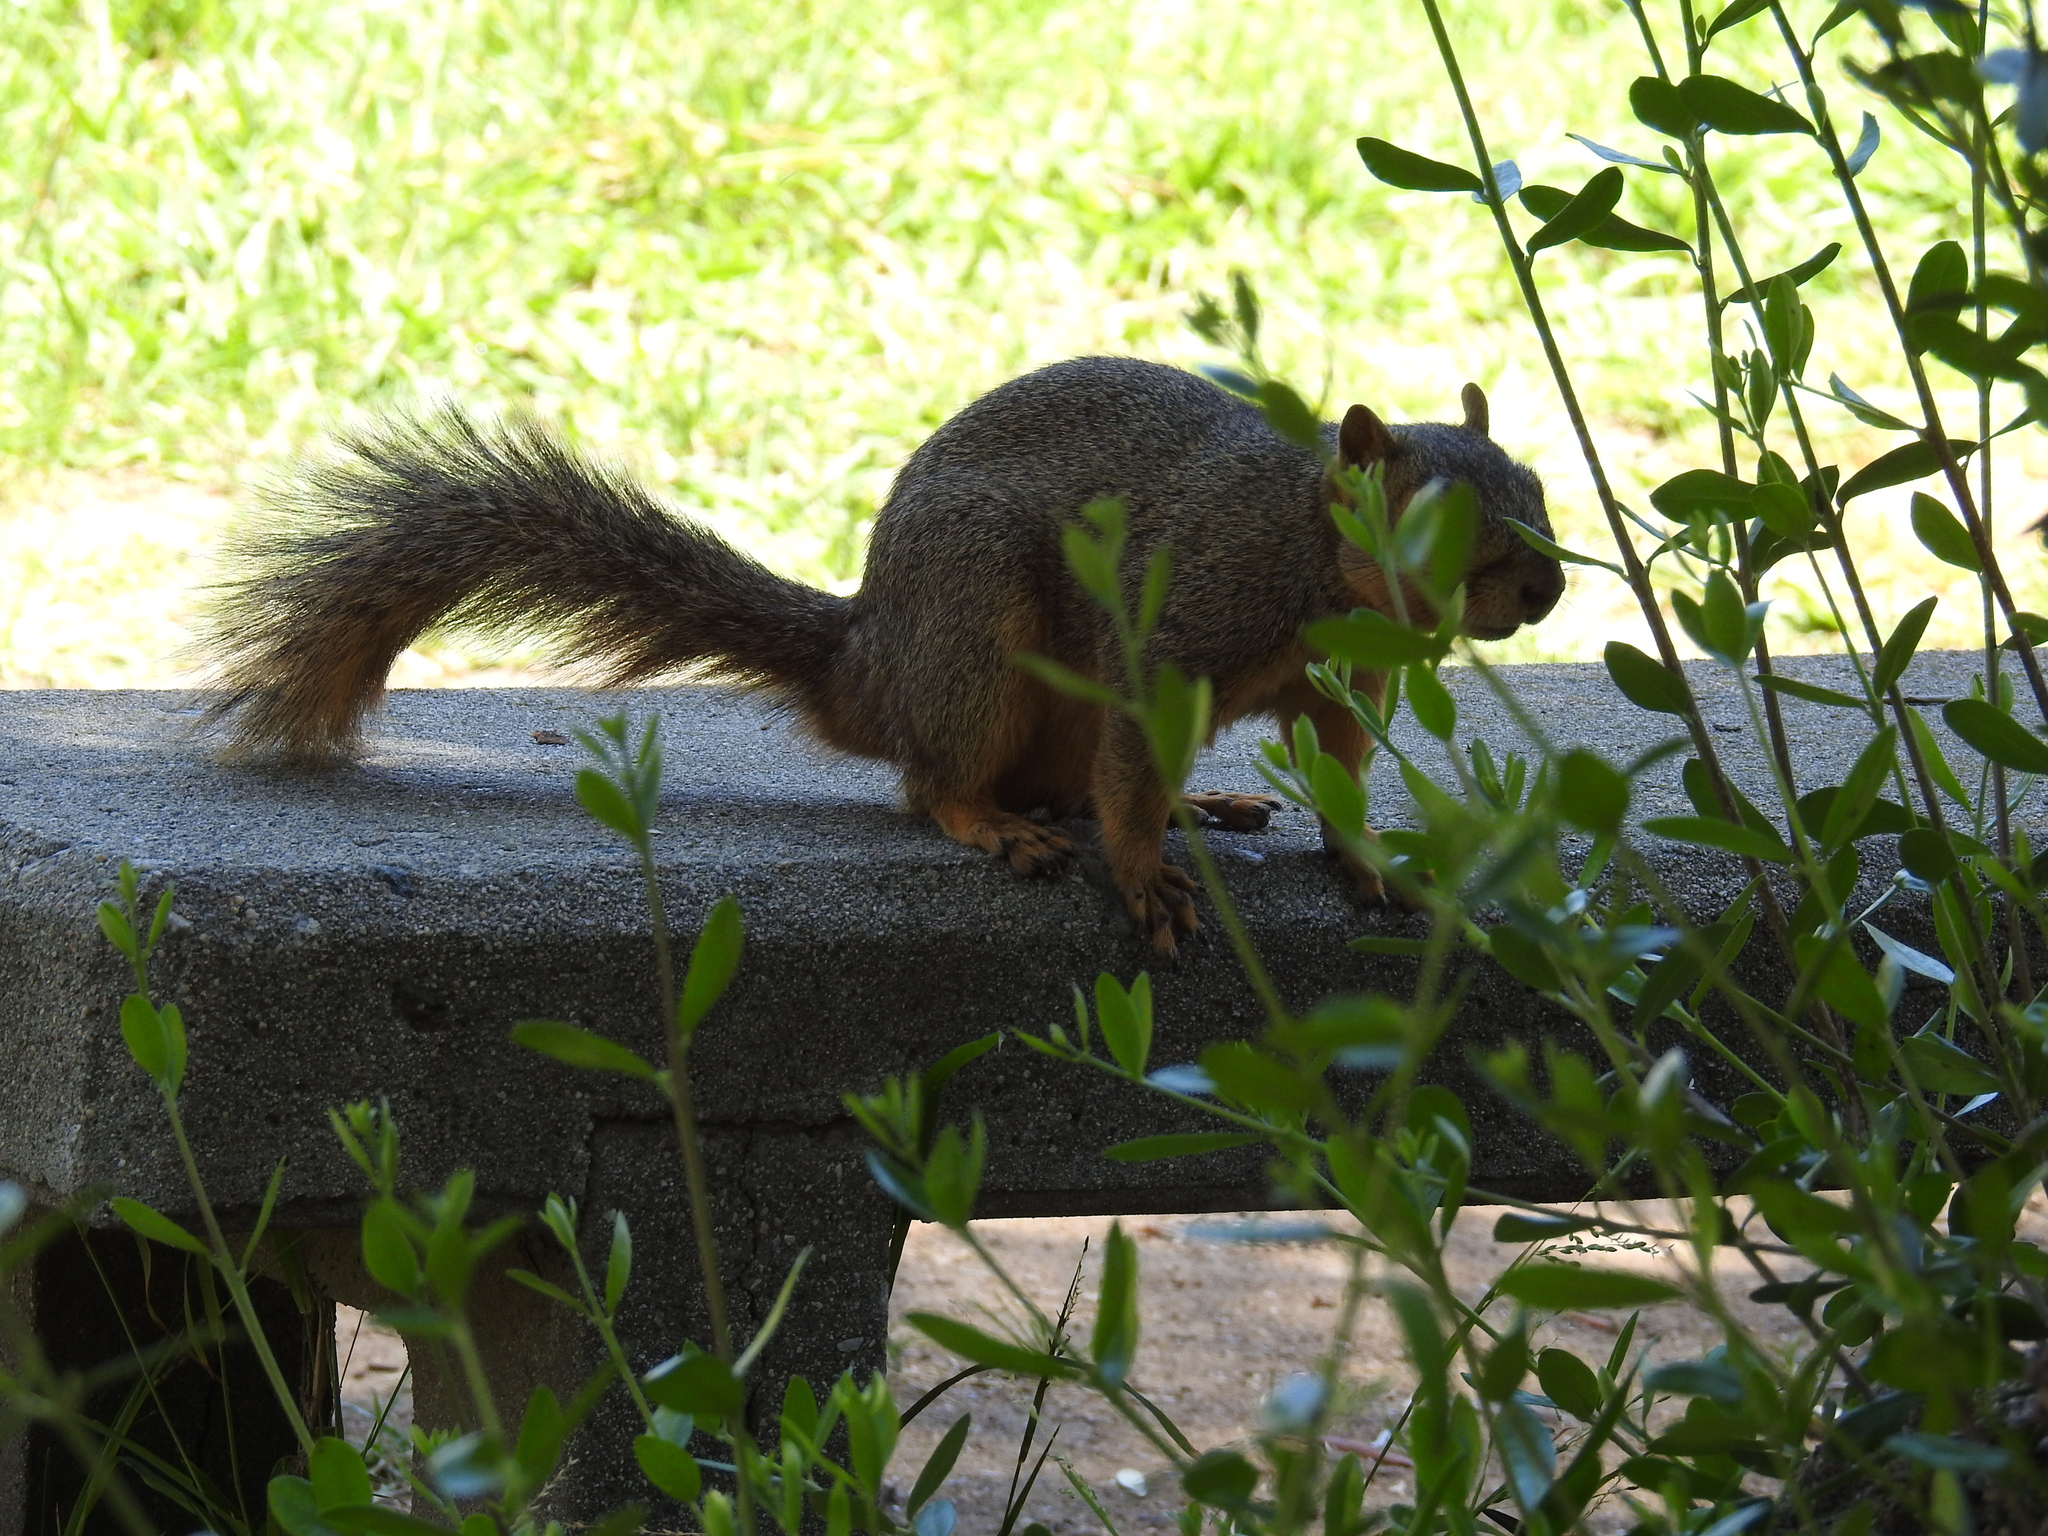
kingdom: Animalia
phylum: Chordata
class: Mammalia
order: Rodentia
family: Sciuridae
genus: Sciurus
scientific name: Sciurus niger
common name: Fox squirrel
